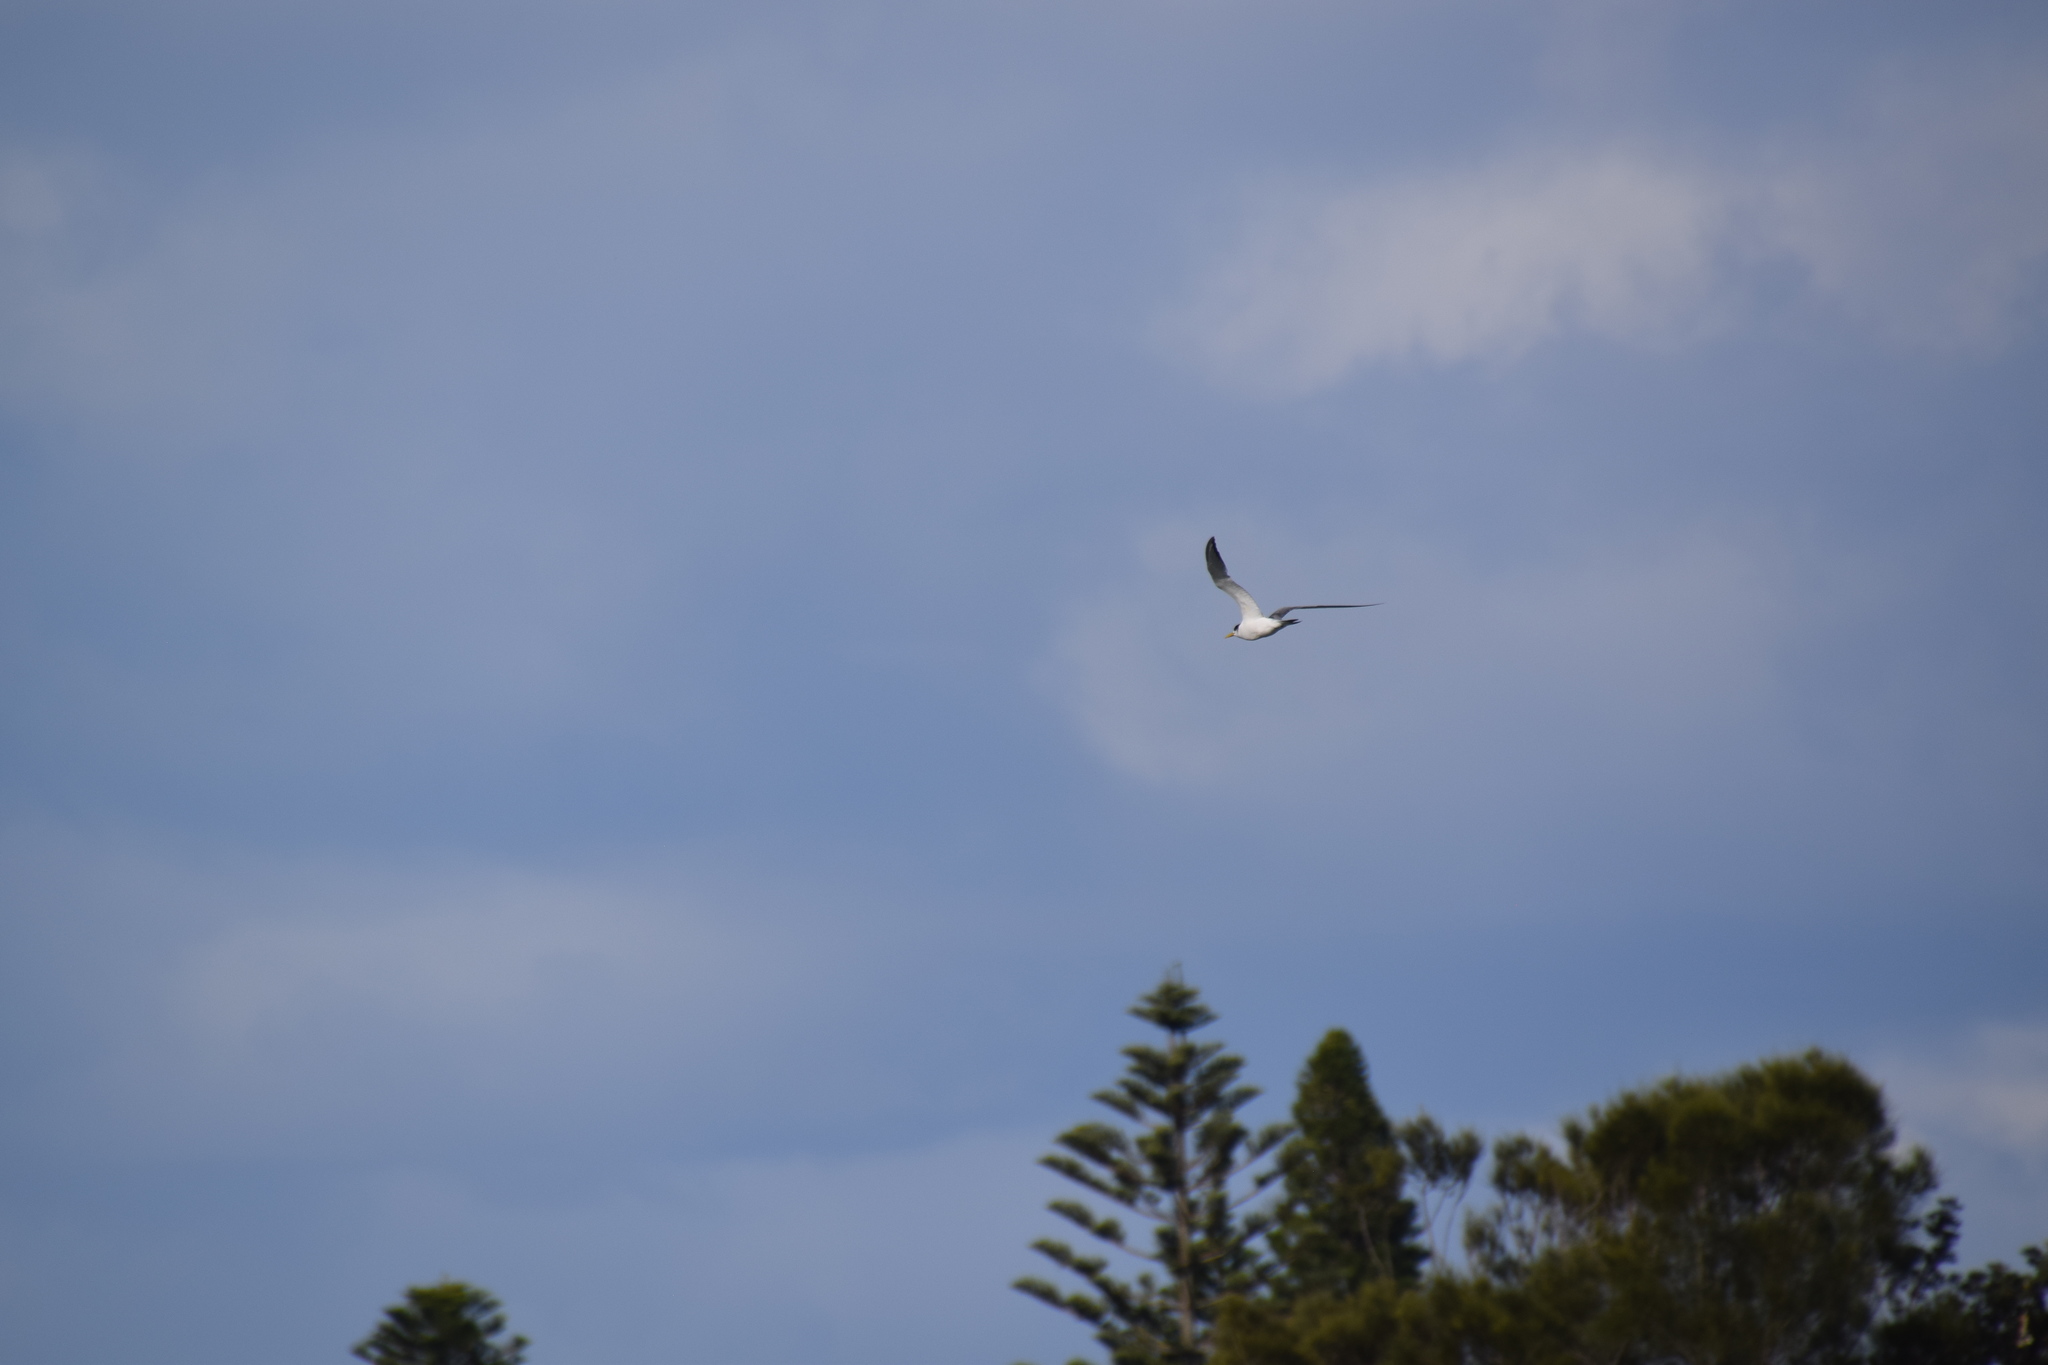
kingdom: Animalia
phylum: Chordata
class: Aves
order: Charadriiformes
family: Laridae
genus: Thalasseus
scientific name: Thalasseus bergii
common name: Greater crested tern
